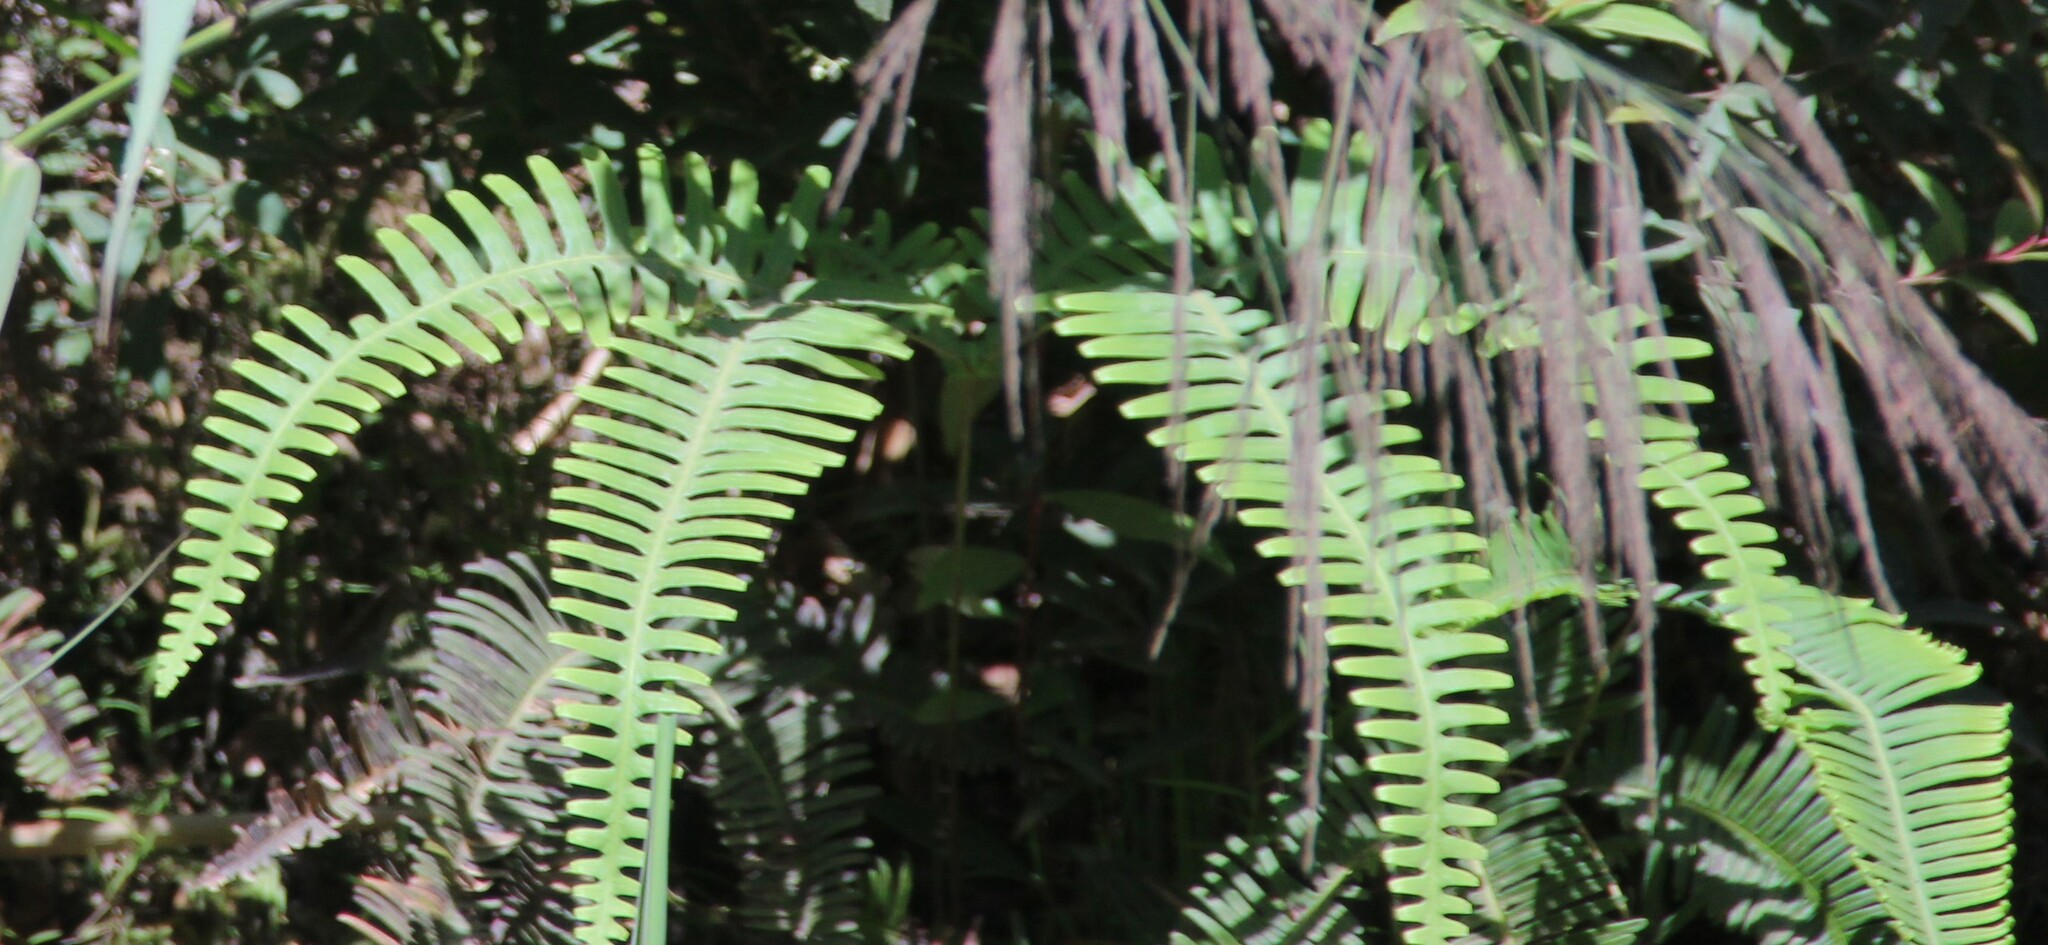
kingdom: Plantae
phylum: Tracheophyta
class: Polypodiopsida
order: Gleicheniales
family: Gleicheniaceae
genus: Dicranopteris
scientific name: Dicranopteris linearis
